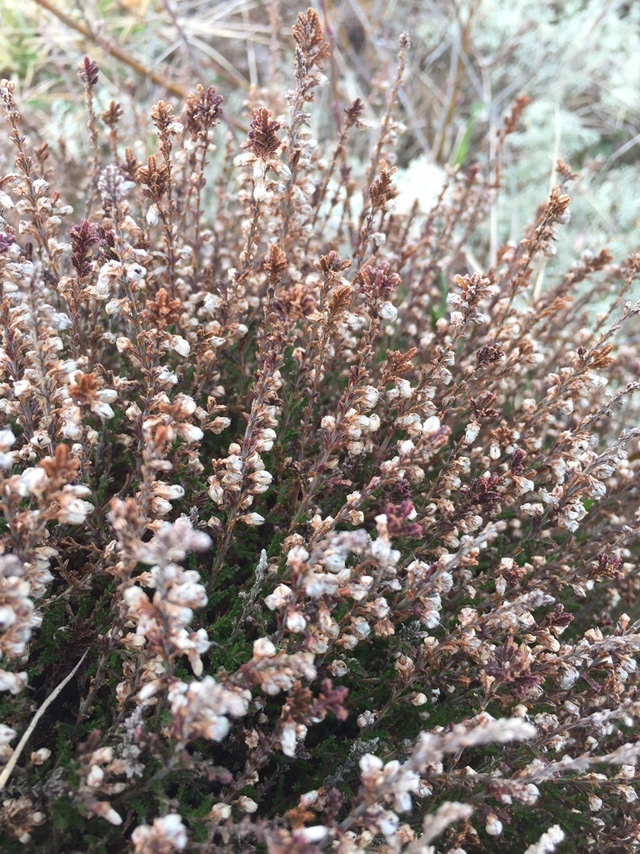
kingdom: Plantae
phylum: Tracheophyta
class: Magnoliopsida
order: Ericales
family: Ericaceae
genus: Calluna
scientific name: Calluna vulgaris
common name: Heather
